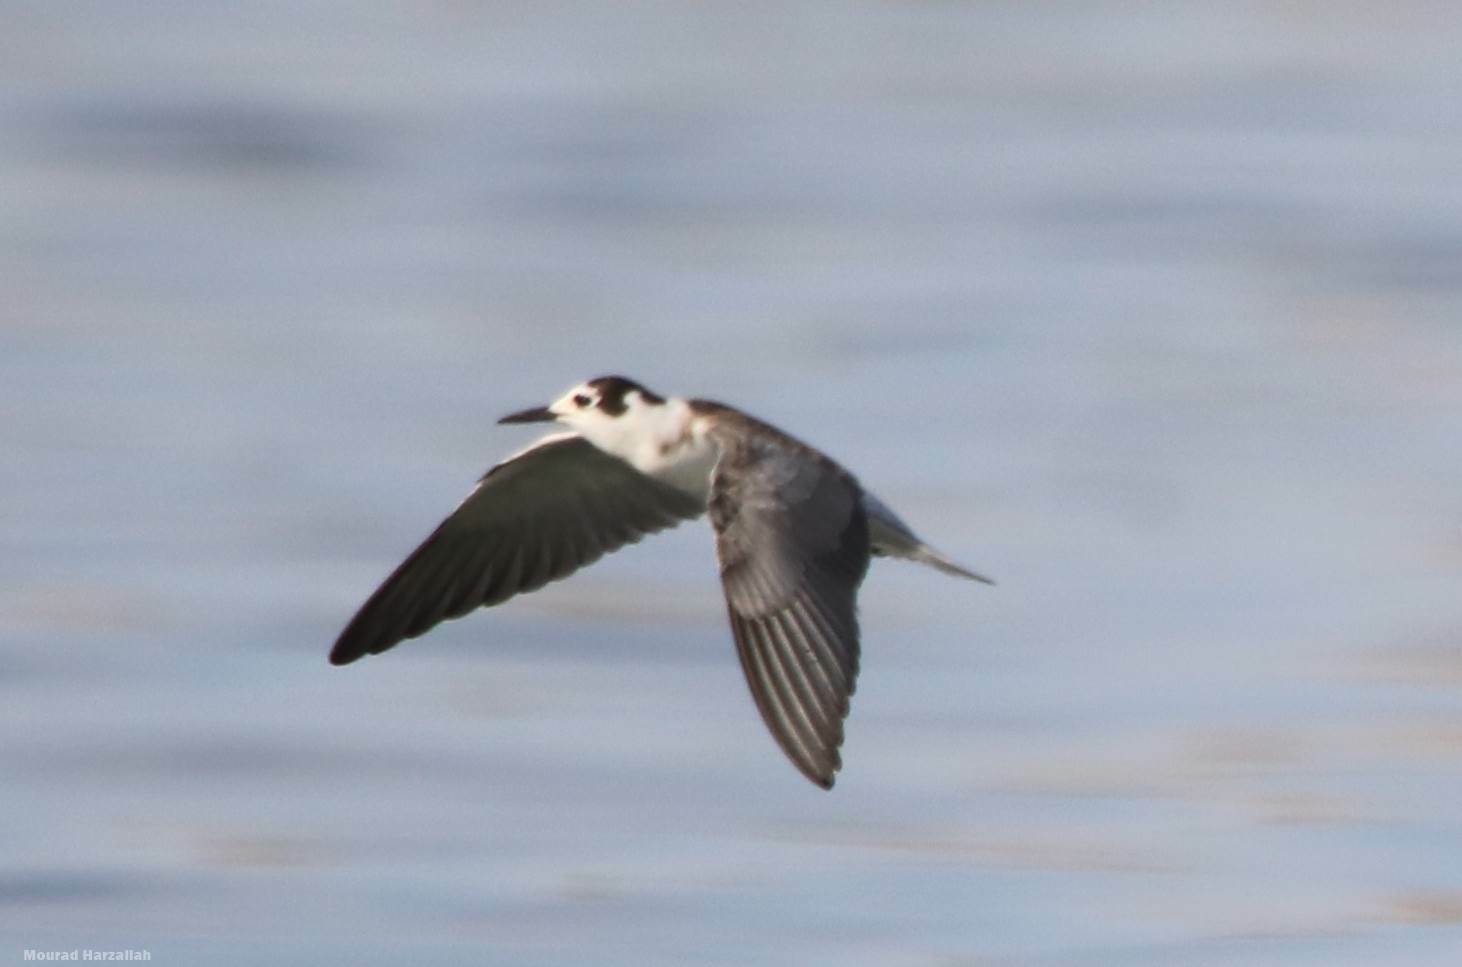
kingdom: Animalia
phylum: Chordata
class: Aves
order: Charadriiformes
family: Laridae
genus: Chlidonias
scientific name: Chlidonias niger
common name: Black tern
